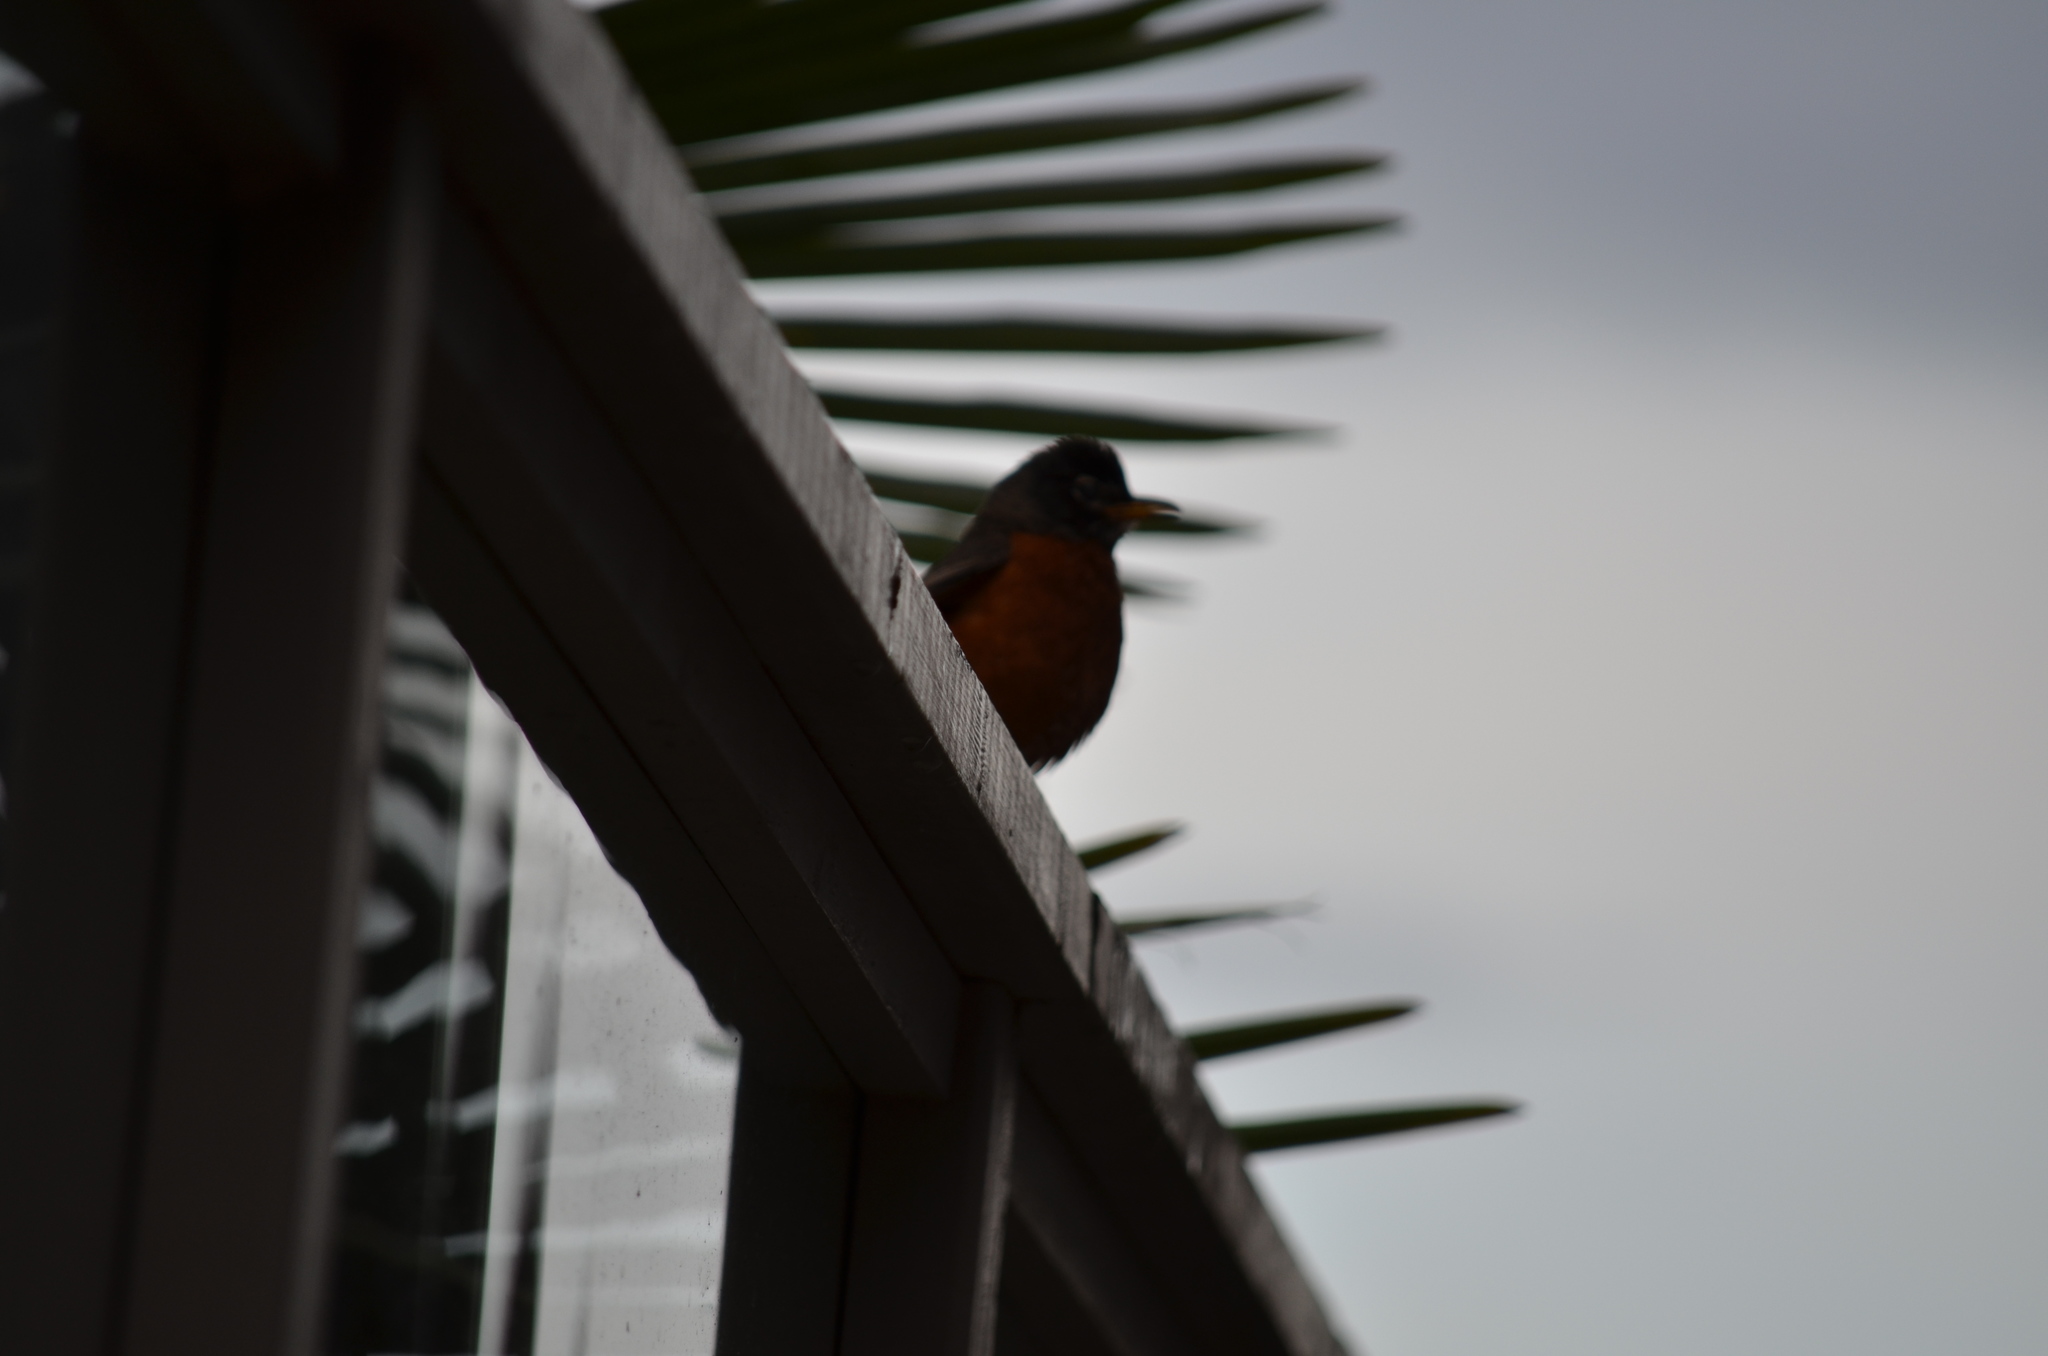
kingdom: Animalia
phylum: Chordata
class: Aves
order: Passeriformes
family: Turdidae
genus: Turdus
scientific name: Turdus migratorius
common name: American robin
